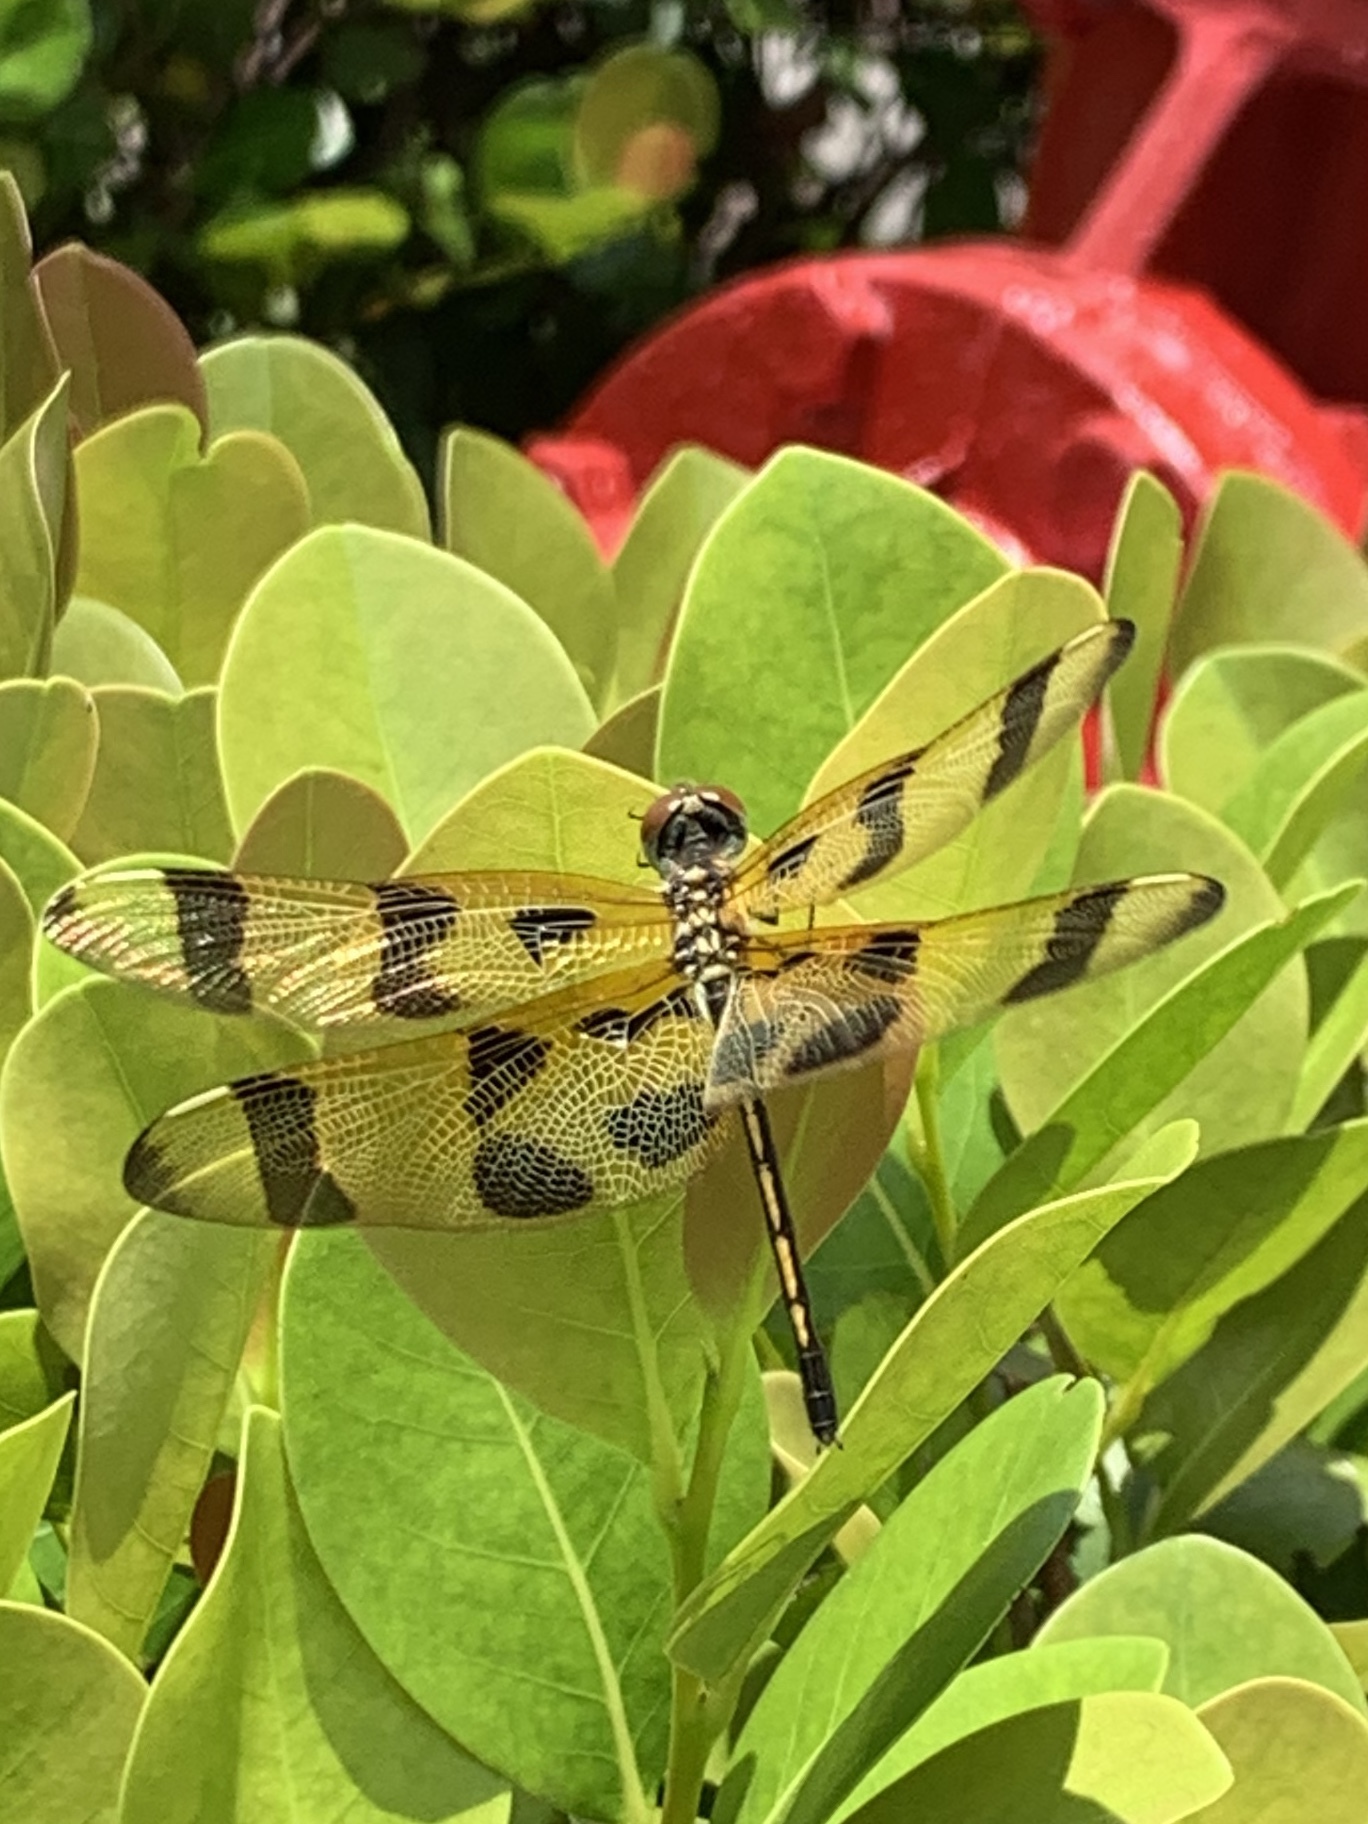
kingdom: Animalia
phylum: Arthropoda
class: Insecta
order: Odonata
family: Libellulidae
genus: Celithemis
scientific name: Celithemis eponina
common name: Halloween pennant
